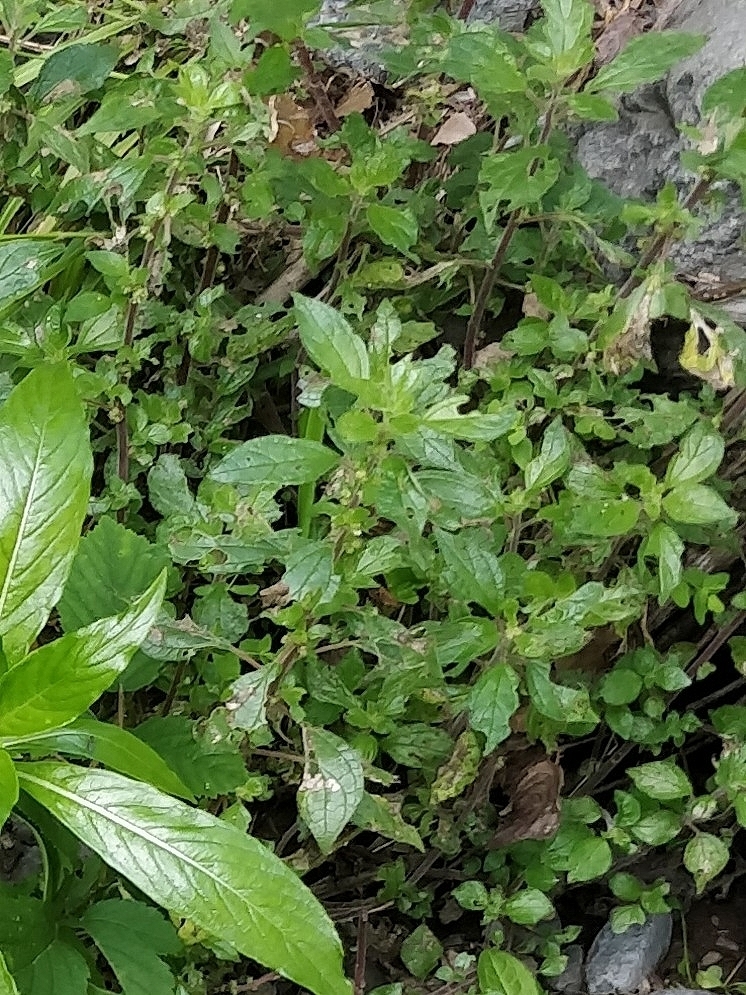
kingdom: Plantae
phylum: Tracheophyta
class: Magnoliopsida
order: Rosales
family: Urticaceae
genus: Parietaria
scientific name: Parietaria judaica
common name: Pellitory-of-the-wall
